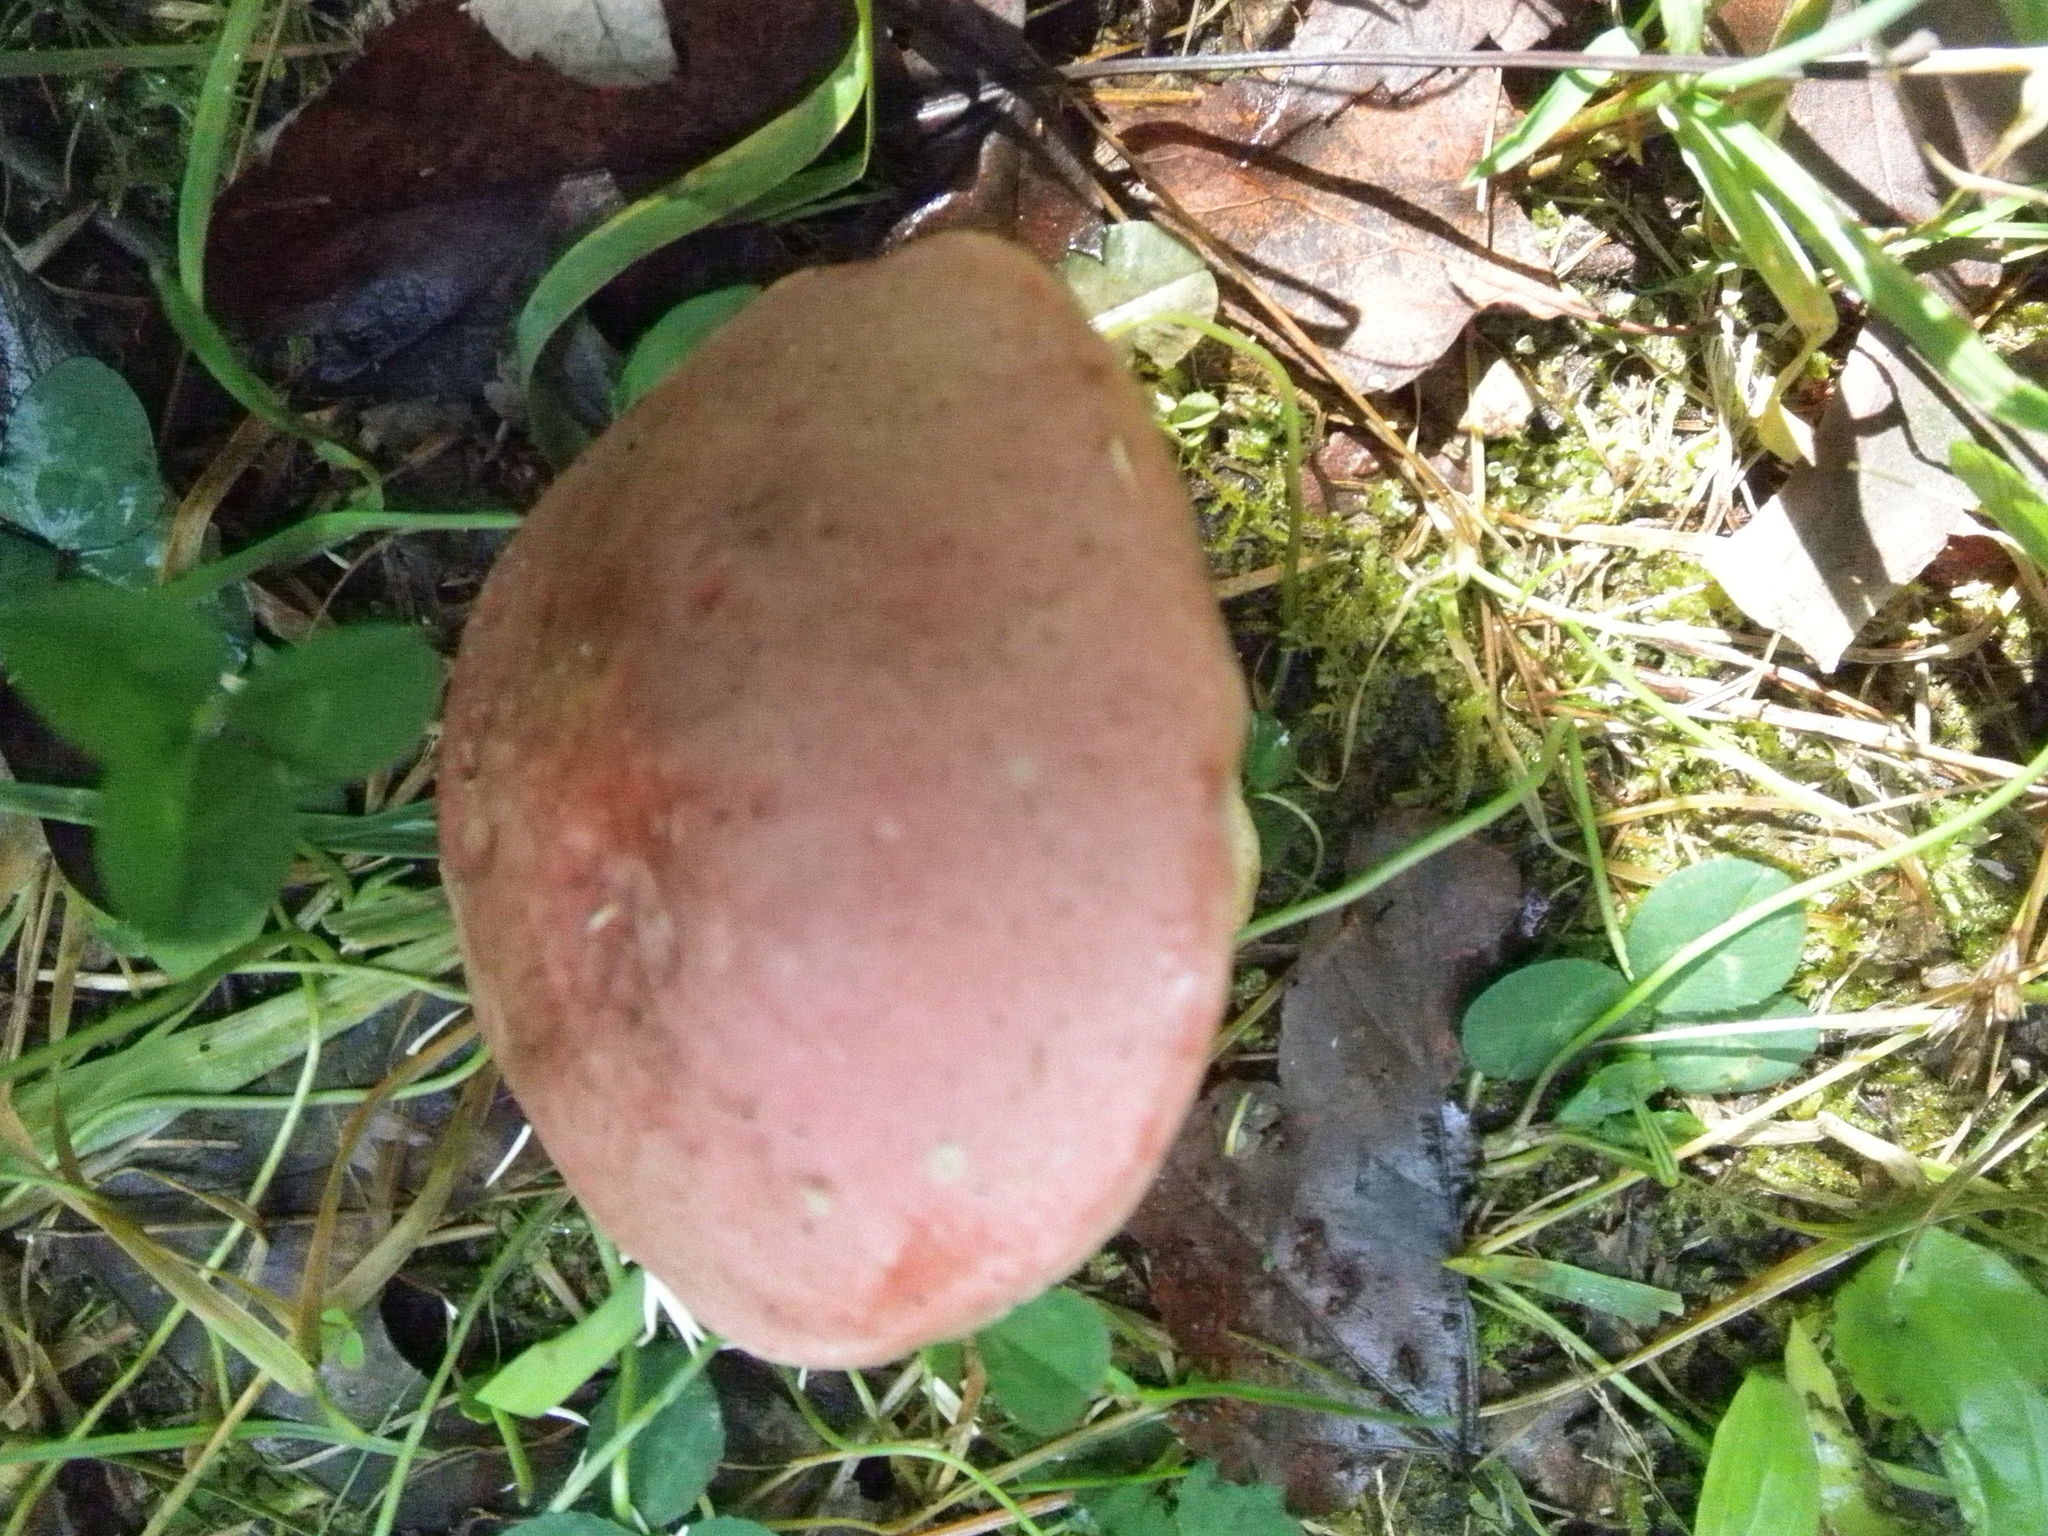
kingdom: Fungi
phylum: Basidiomycota
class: Agaricomycetes
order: Boletales
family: Boletaceae
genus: Xanthoconium
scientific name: Xanthoconium separans
